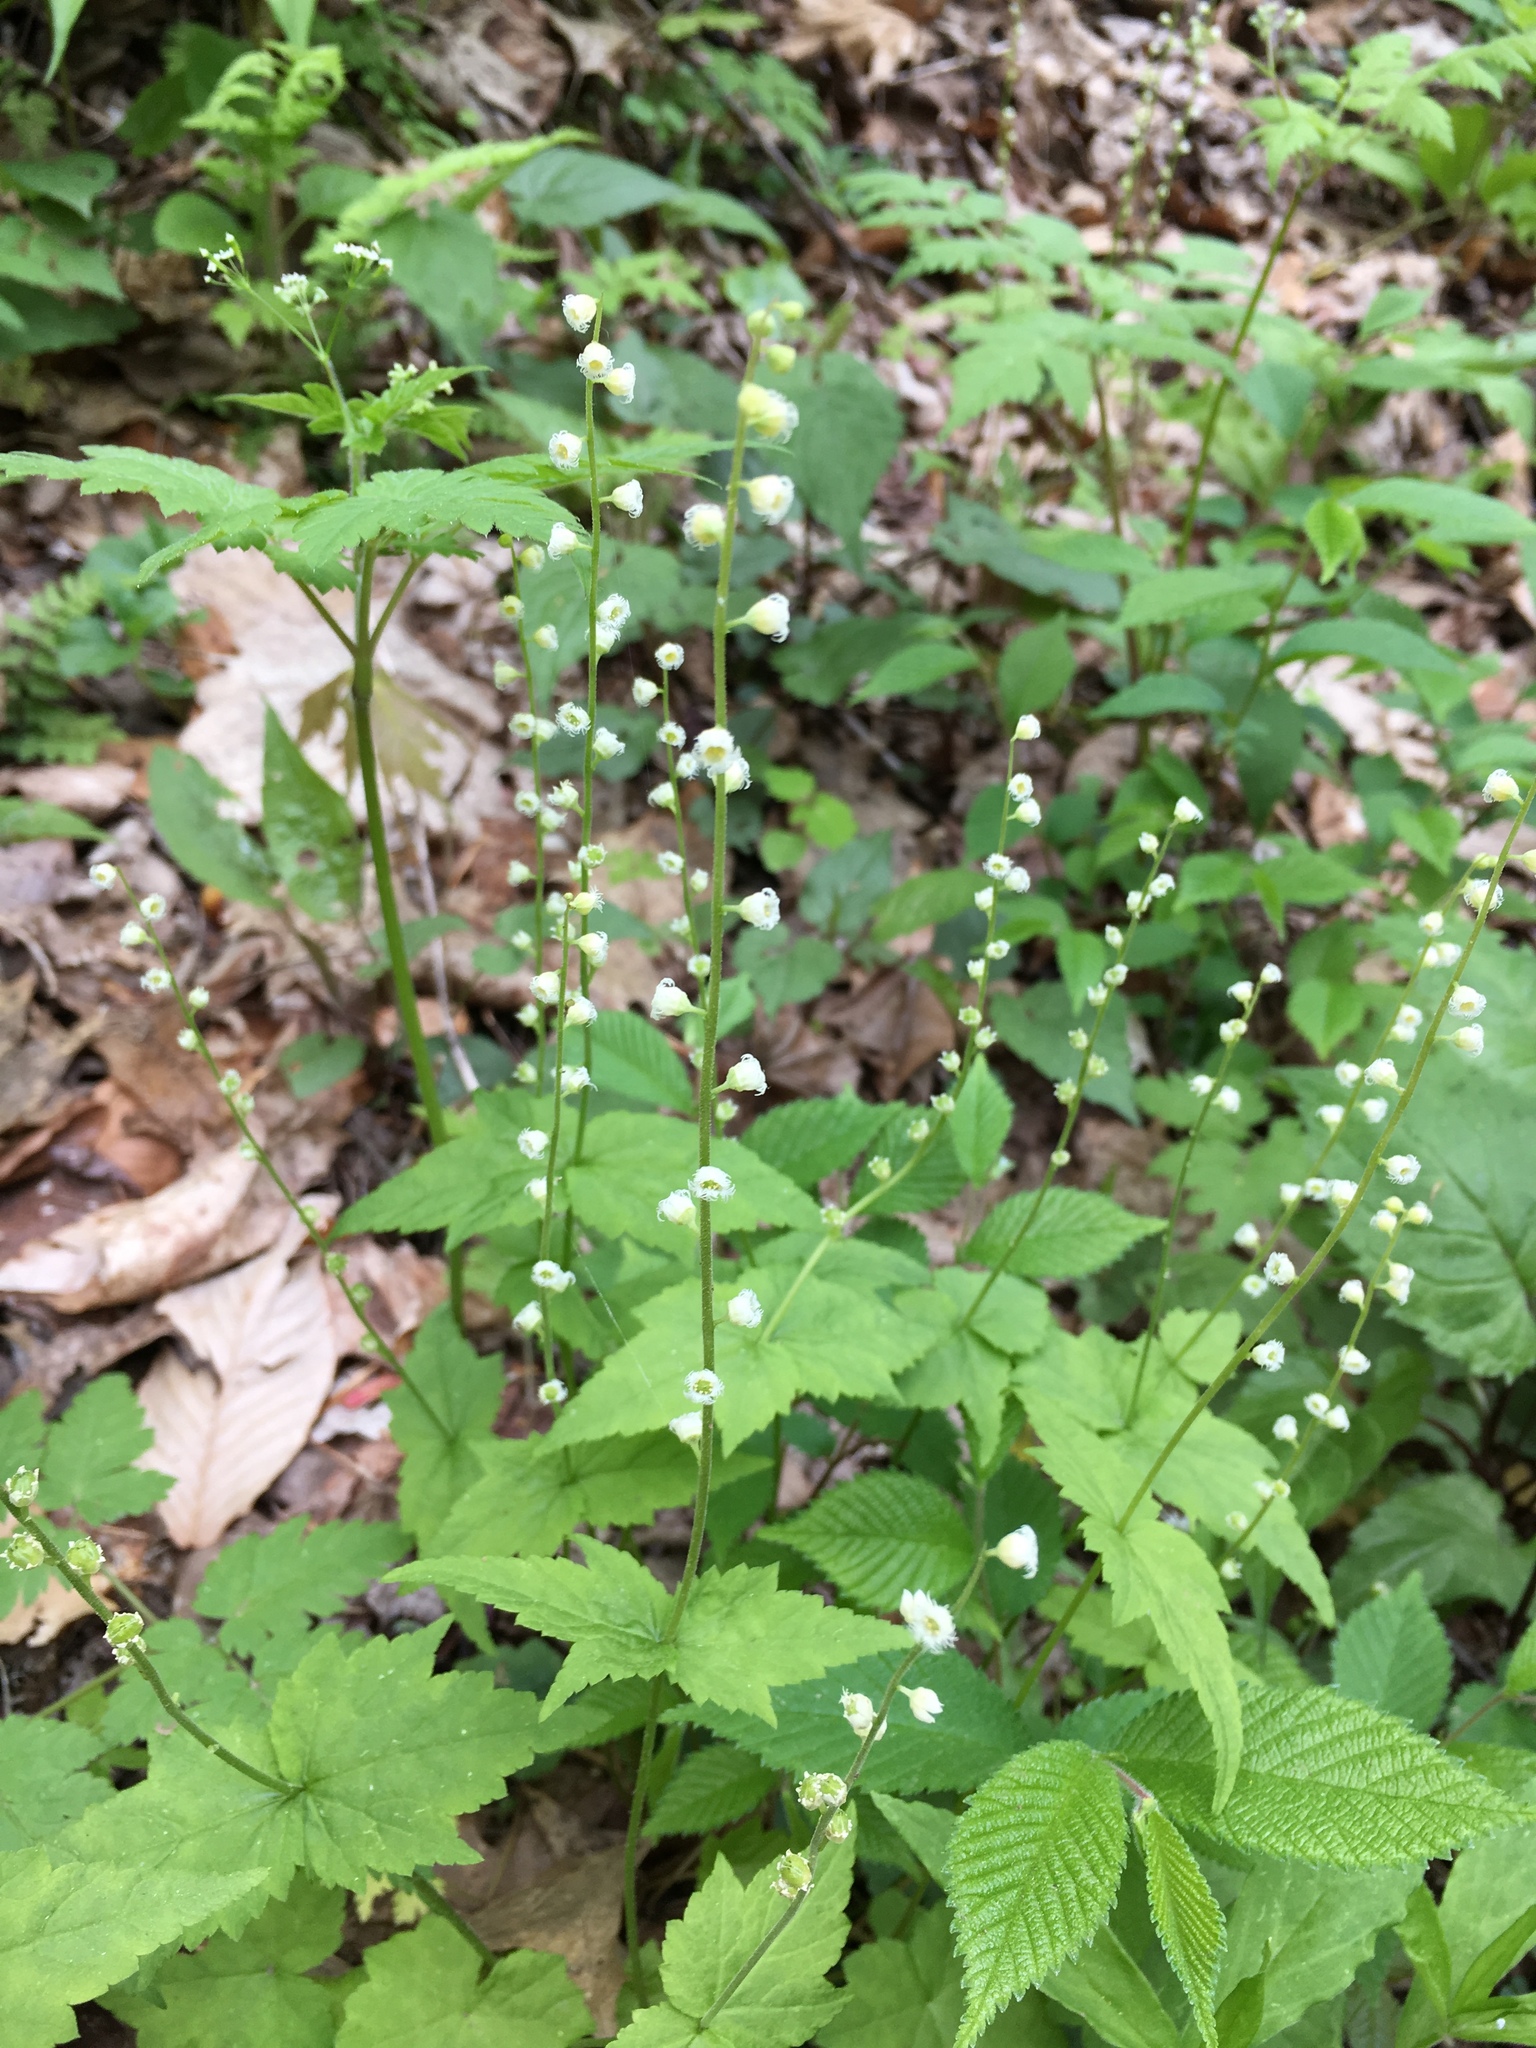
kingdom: Plantae
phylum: Tracheophyta
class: Magnoliopsida
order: Saxifragales
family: Saxifragaceae
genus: Mitella
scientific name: Mitella diphylla
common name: Coolwort
